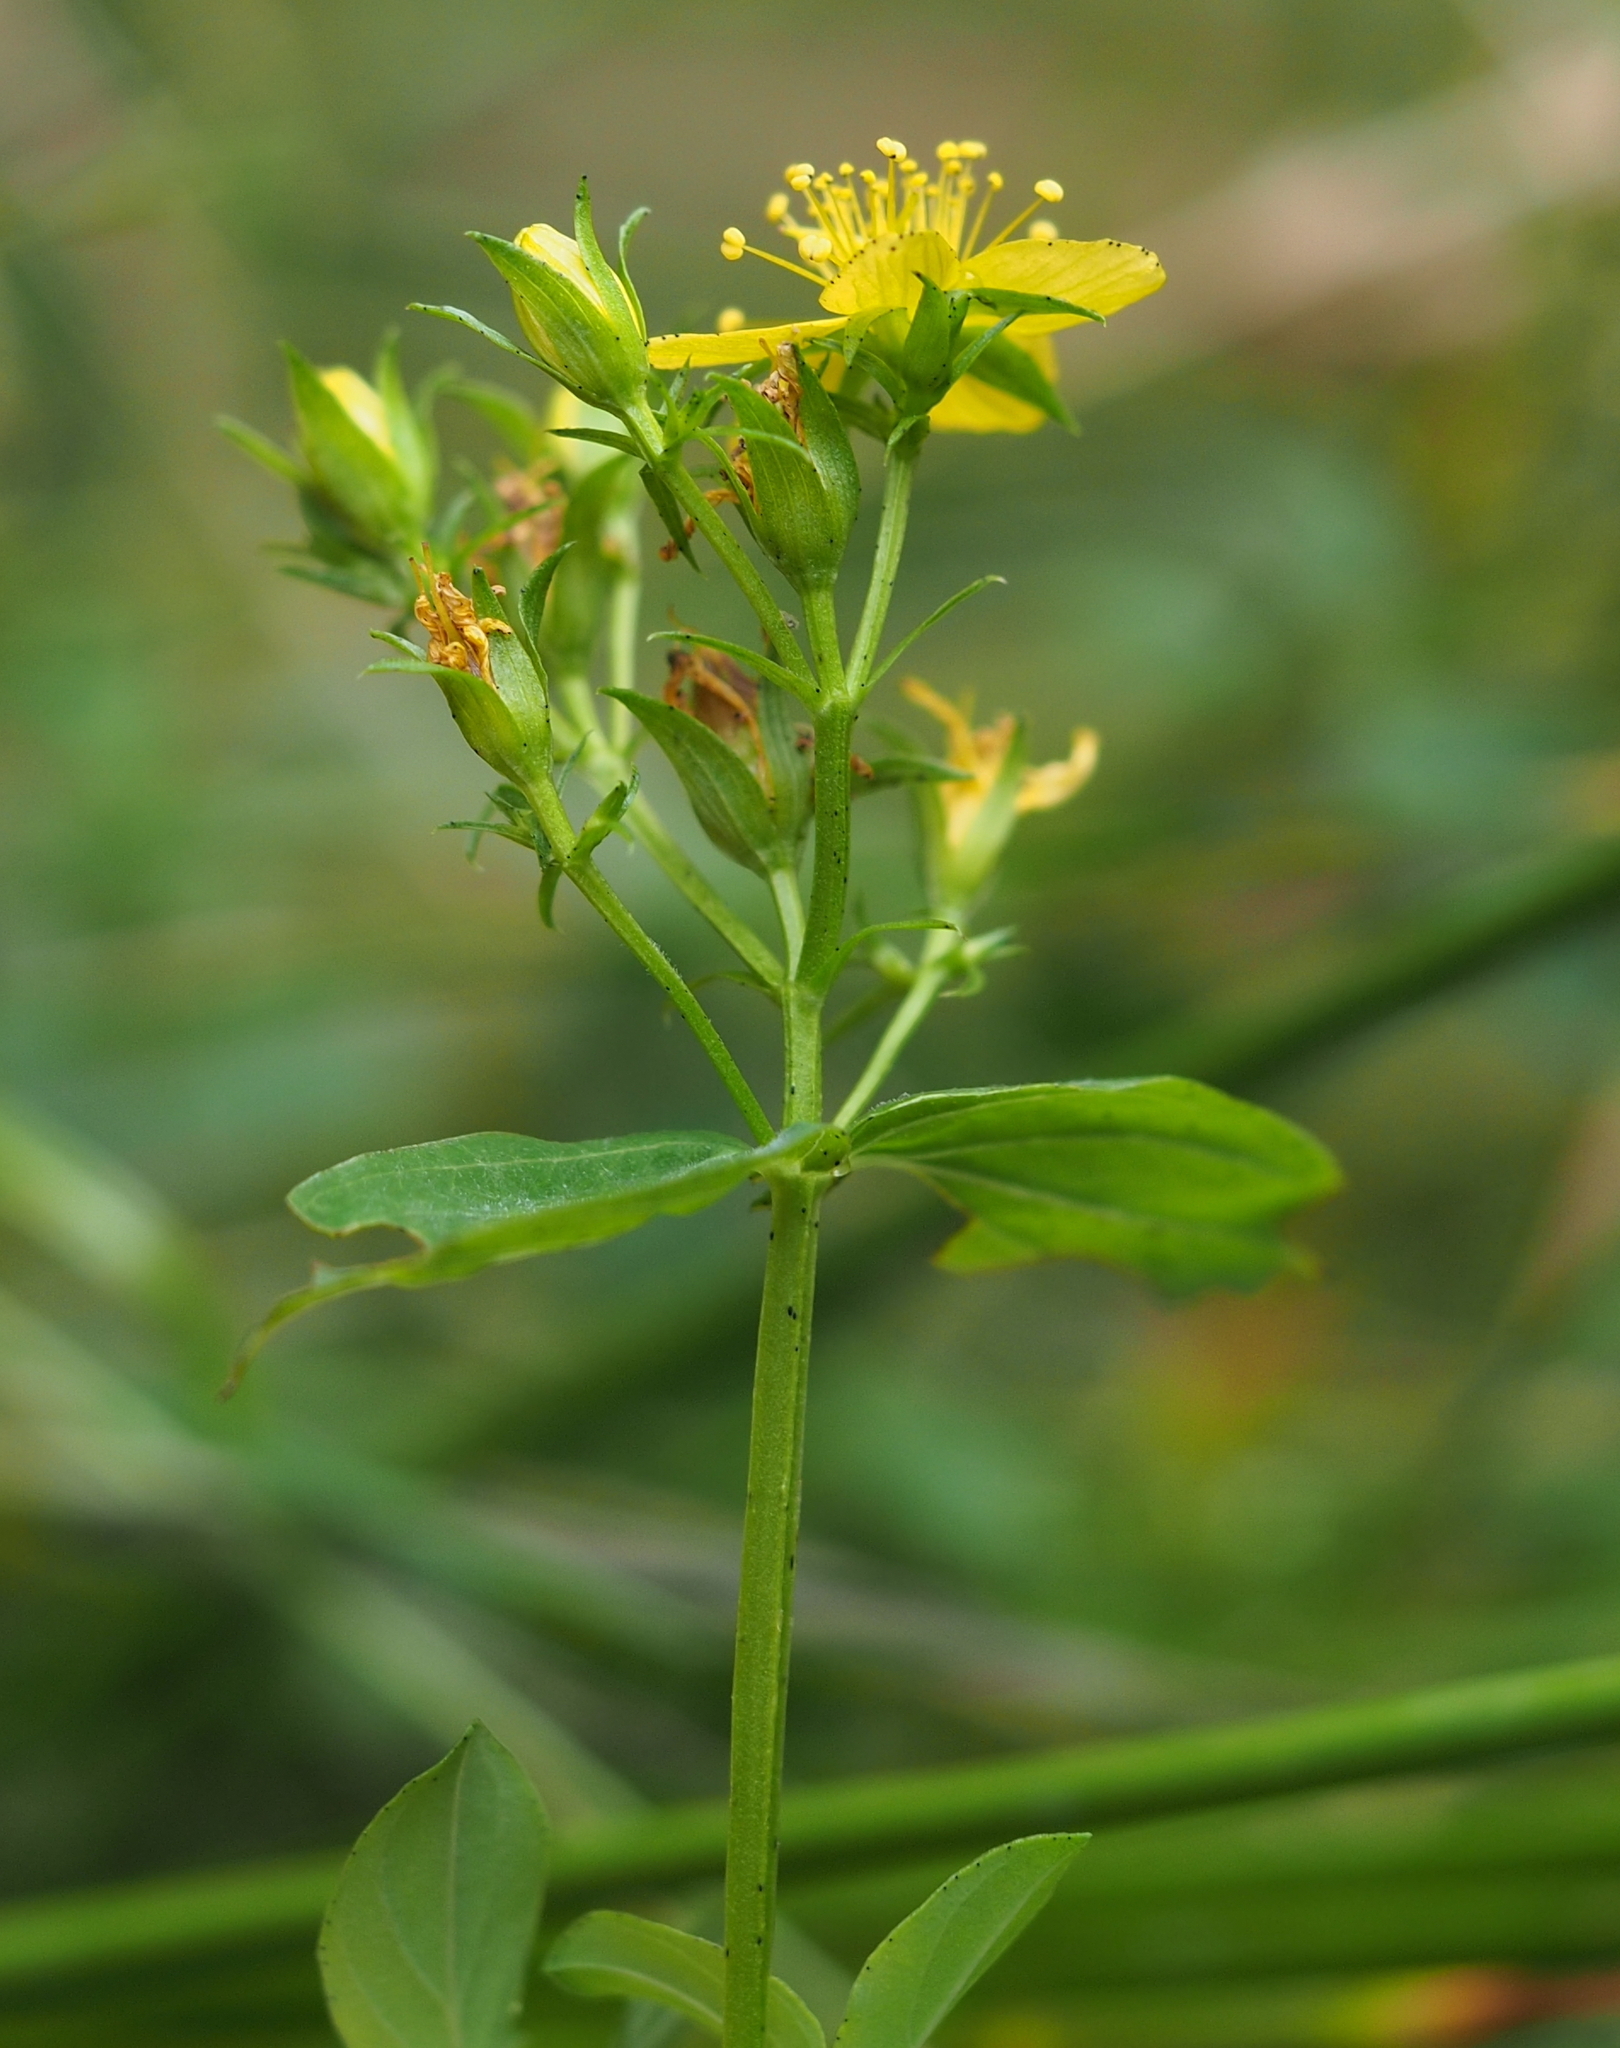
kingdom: Plantae
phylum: Tracheophyta
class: Magnoliopsida
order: Malpighiales
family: Hypericaceae
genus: Hypericum
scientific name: Hypericum tetrapterum
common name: Square-stalked st. john's-wort
